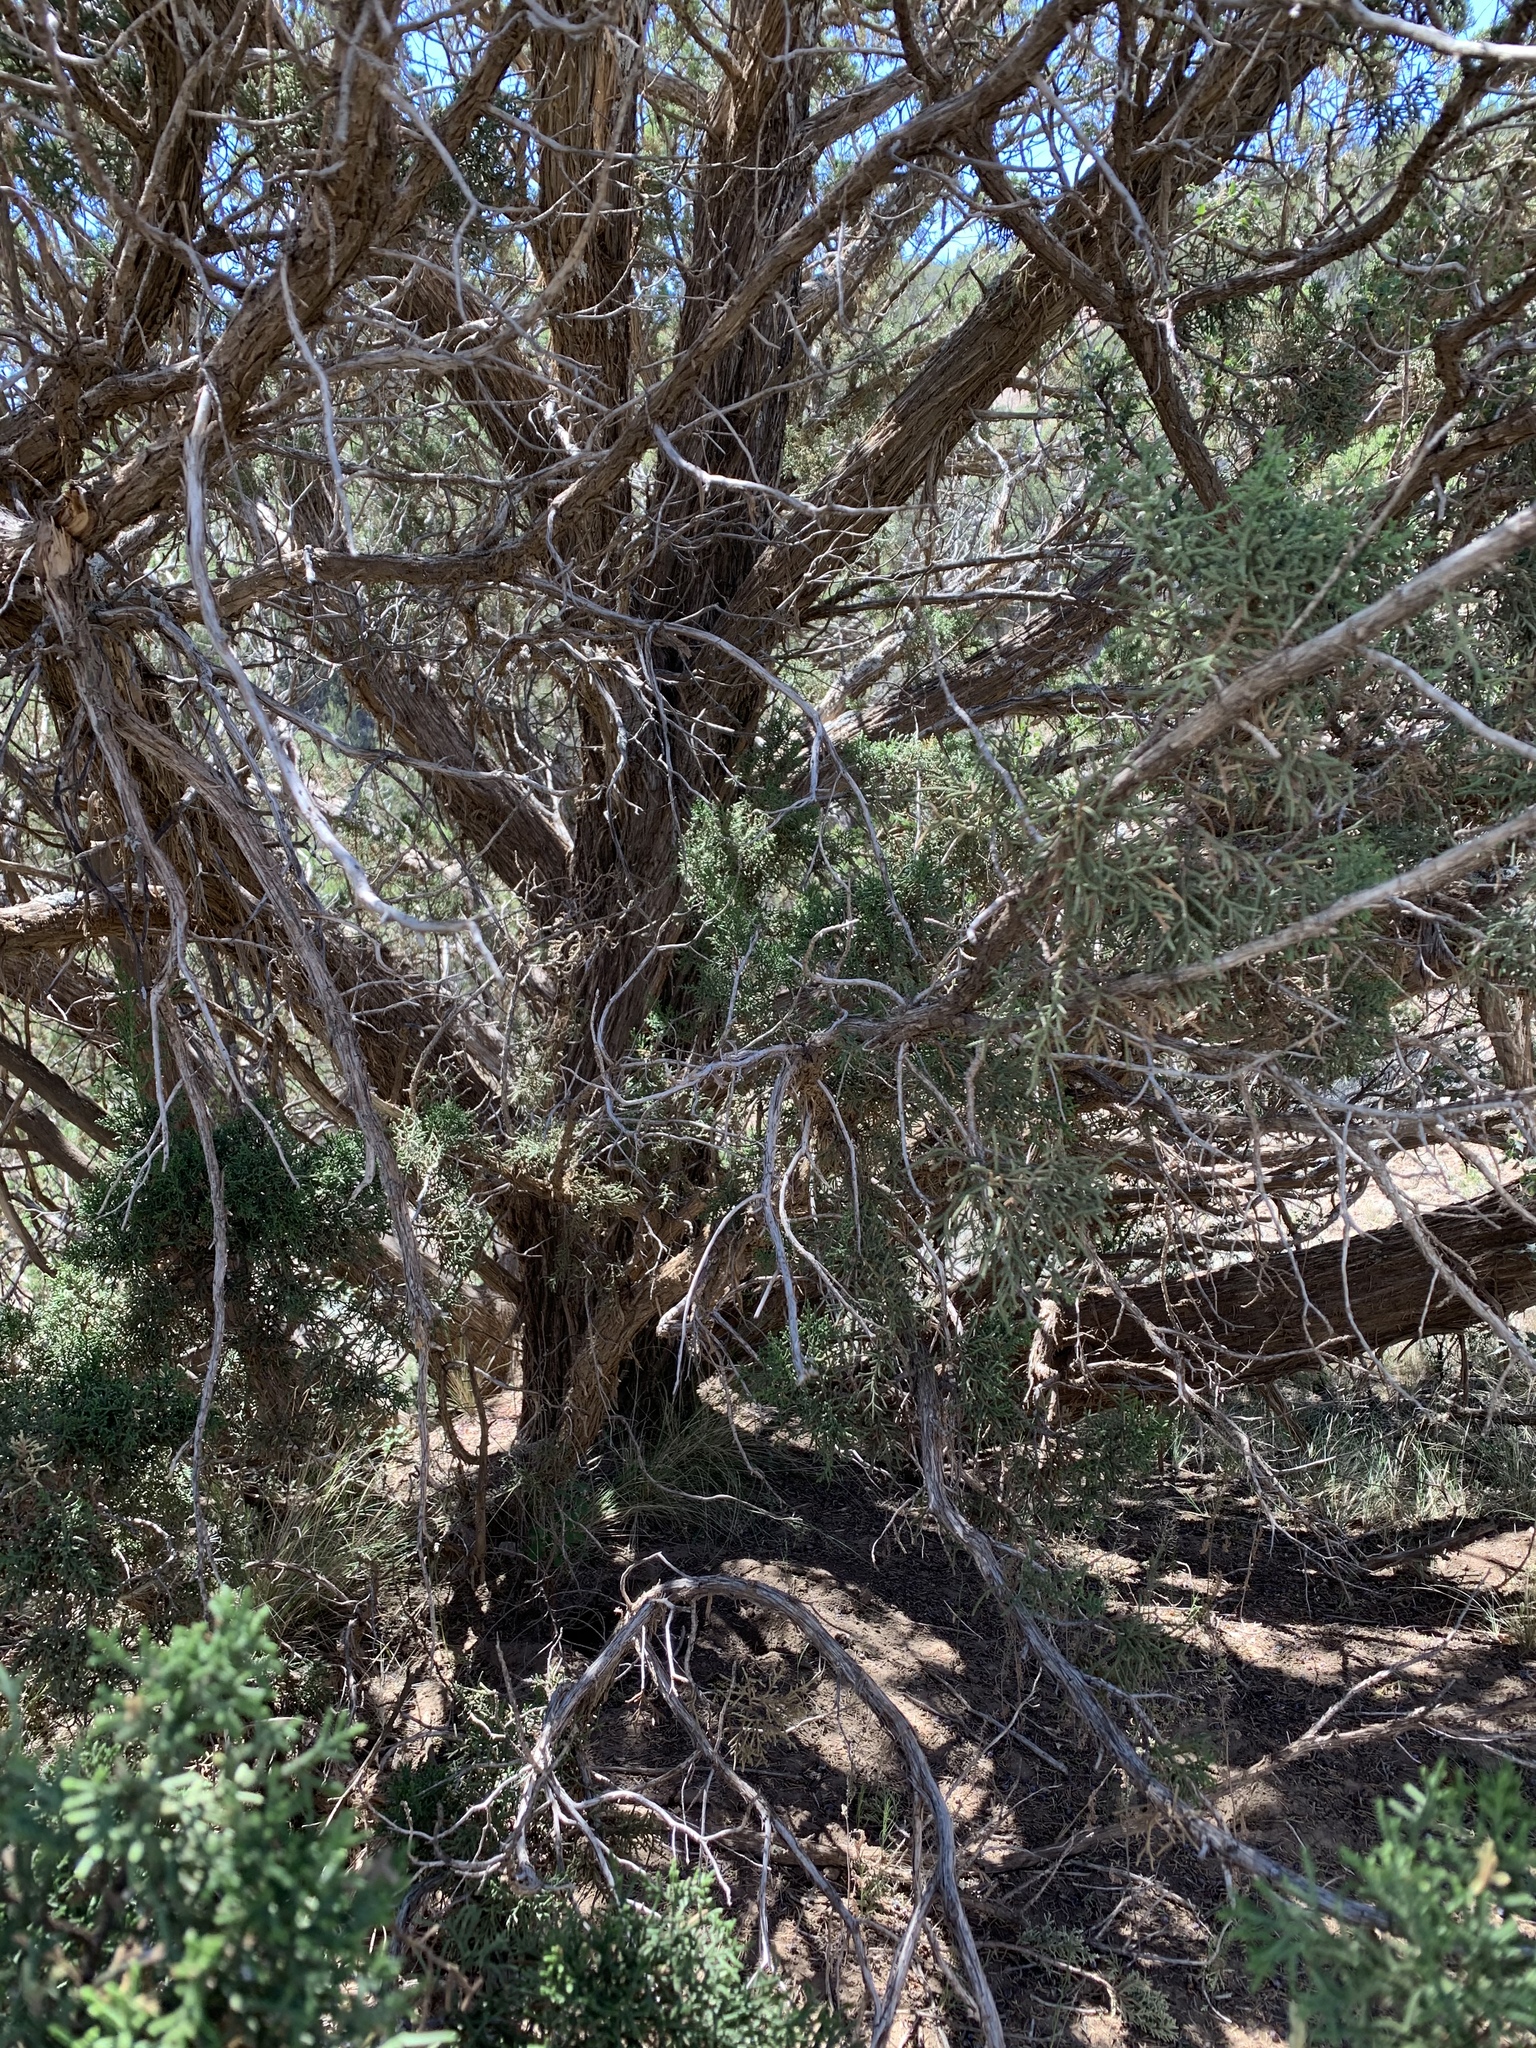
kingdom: Plantae
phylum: Tracheophyta
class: Pinopsida
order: Pinales
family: Cupressaceae
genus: Juniperus
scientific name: Juniperus monosperma
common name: One-seed juniper
